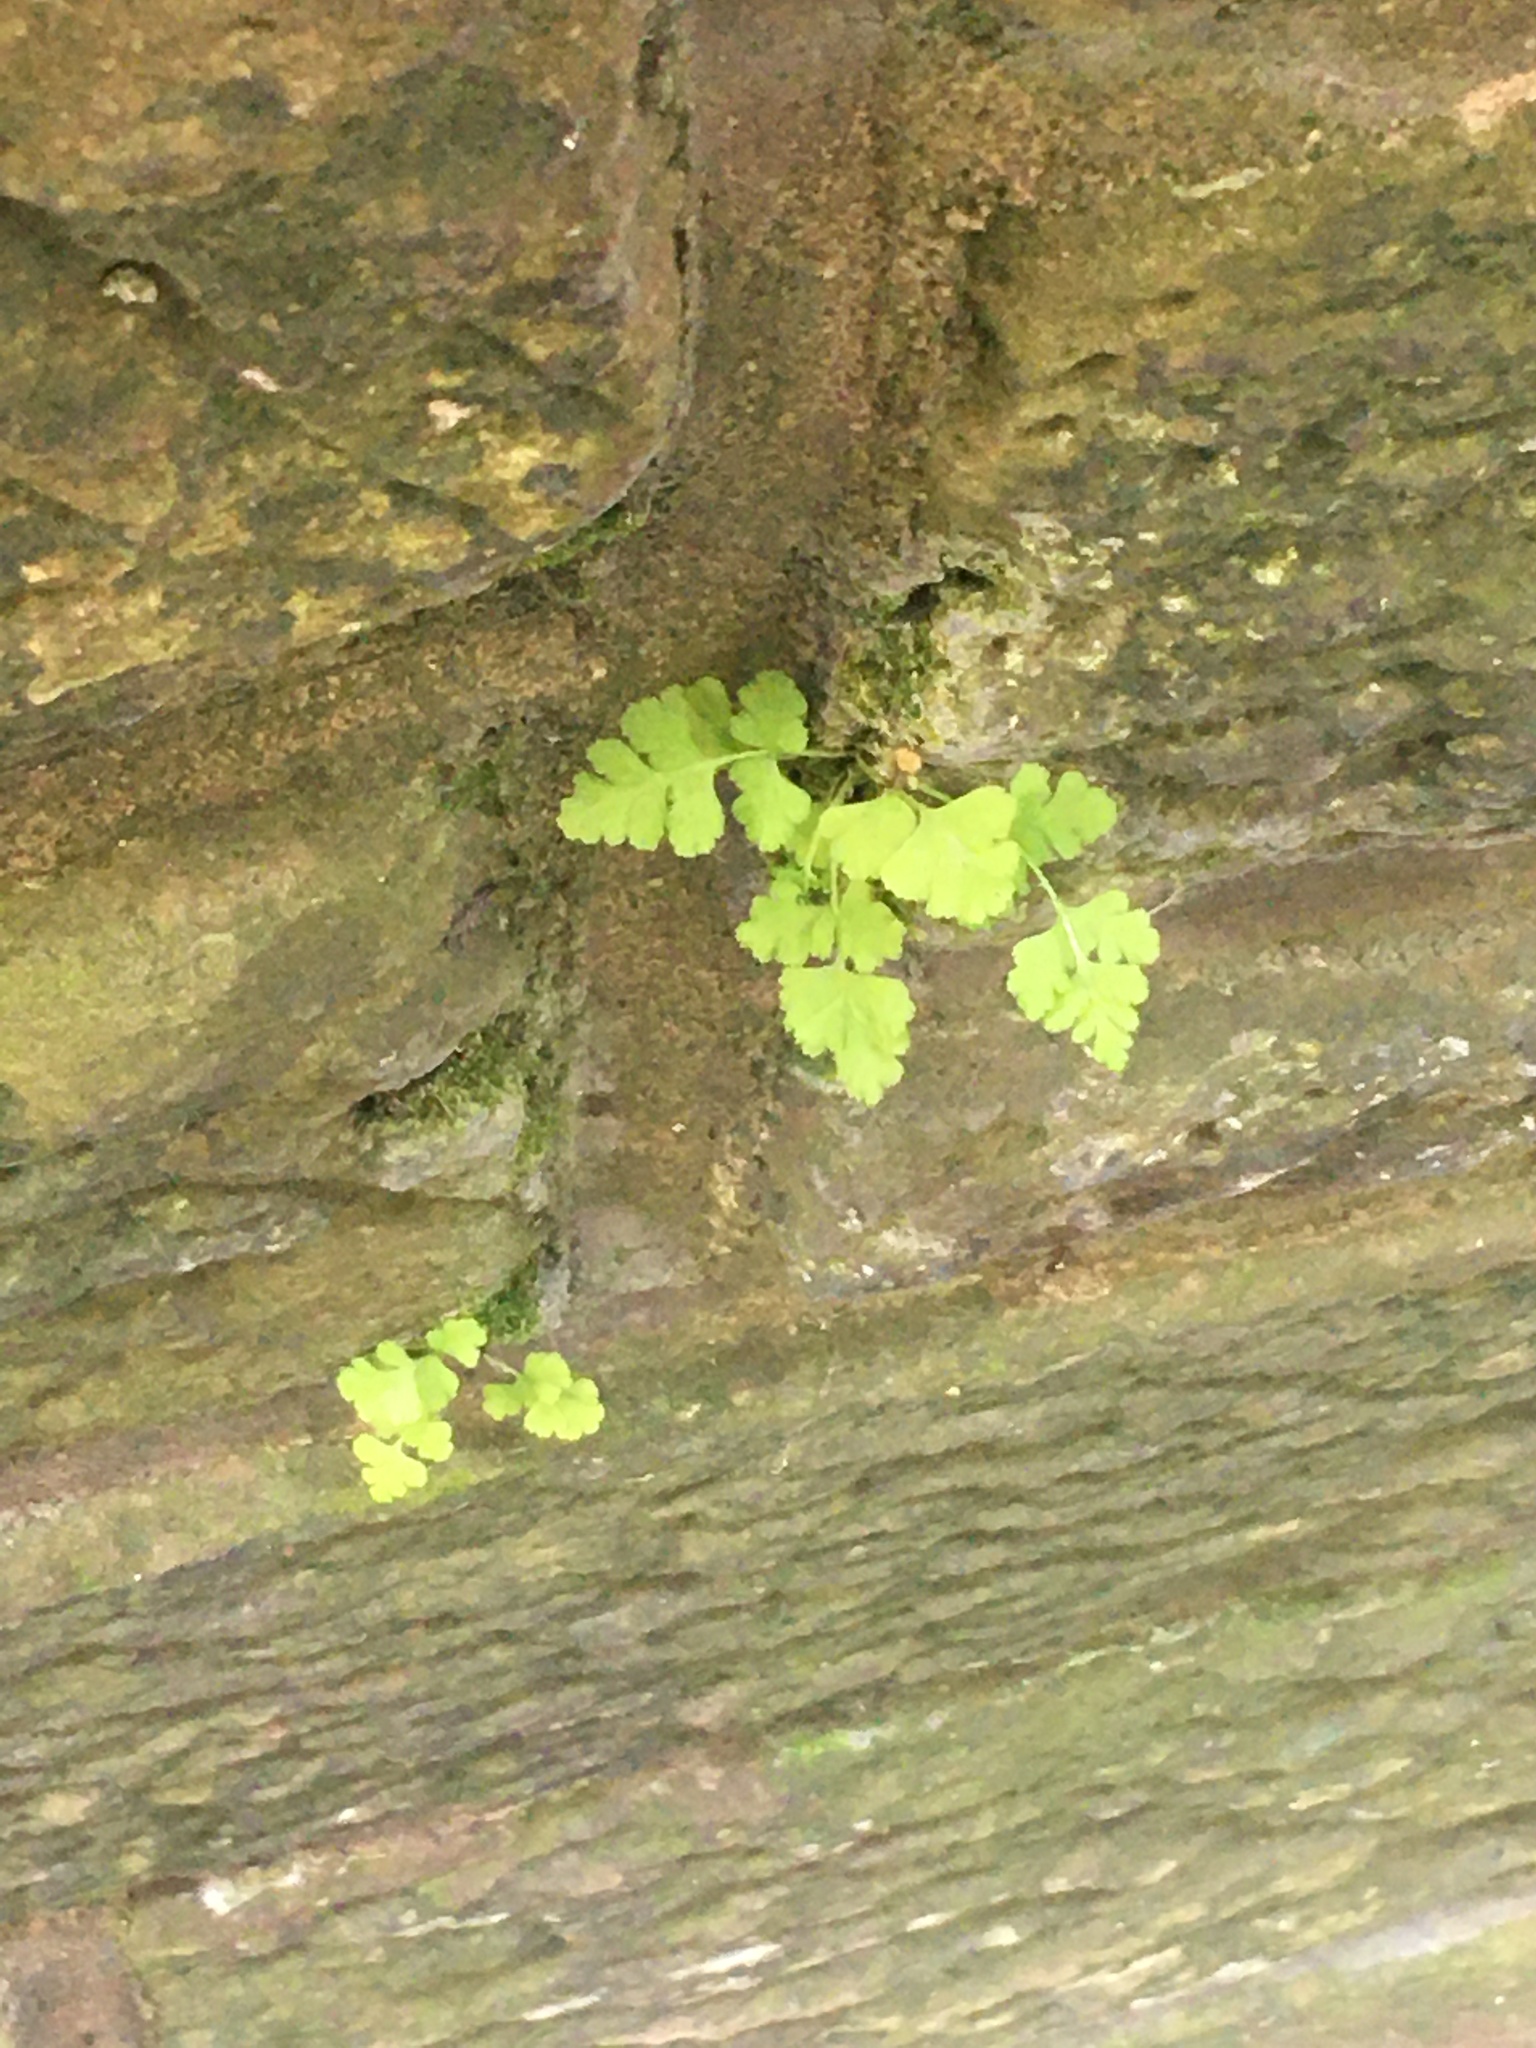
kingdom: Plantae
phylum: Tracheophyta
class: Polypodiopsida
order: Polypodiales
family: Woodsiaceae
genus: Physematium
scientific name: Physematium obtusum
